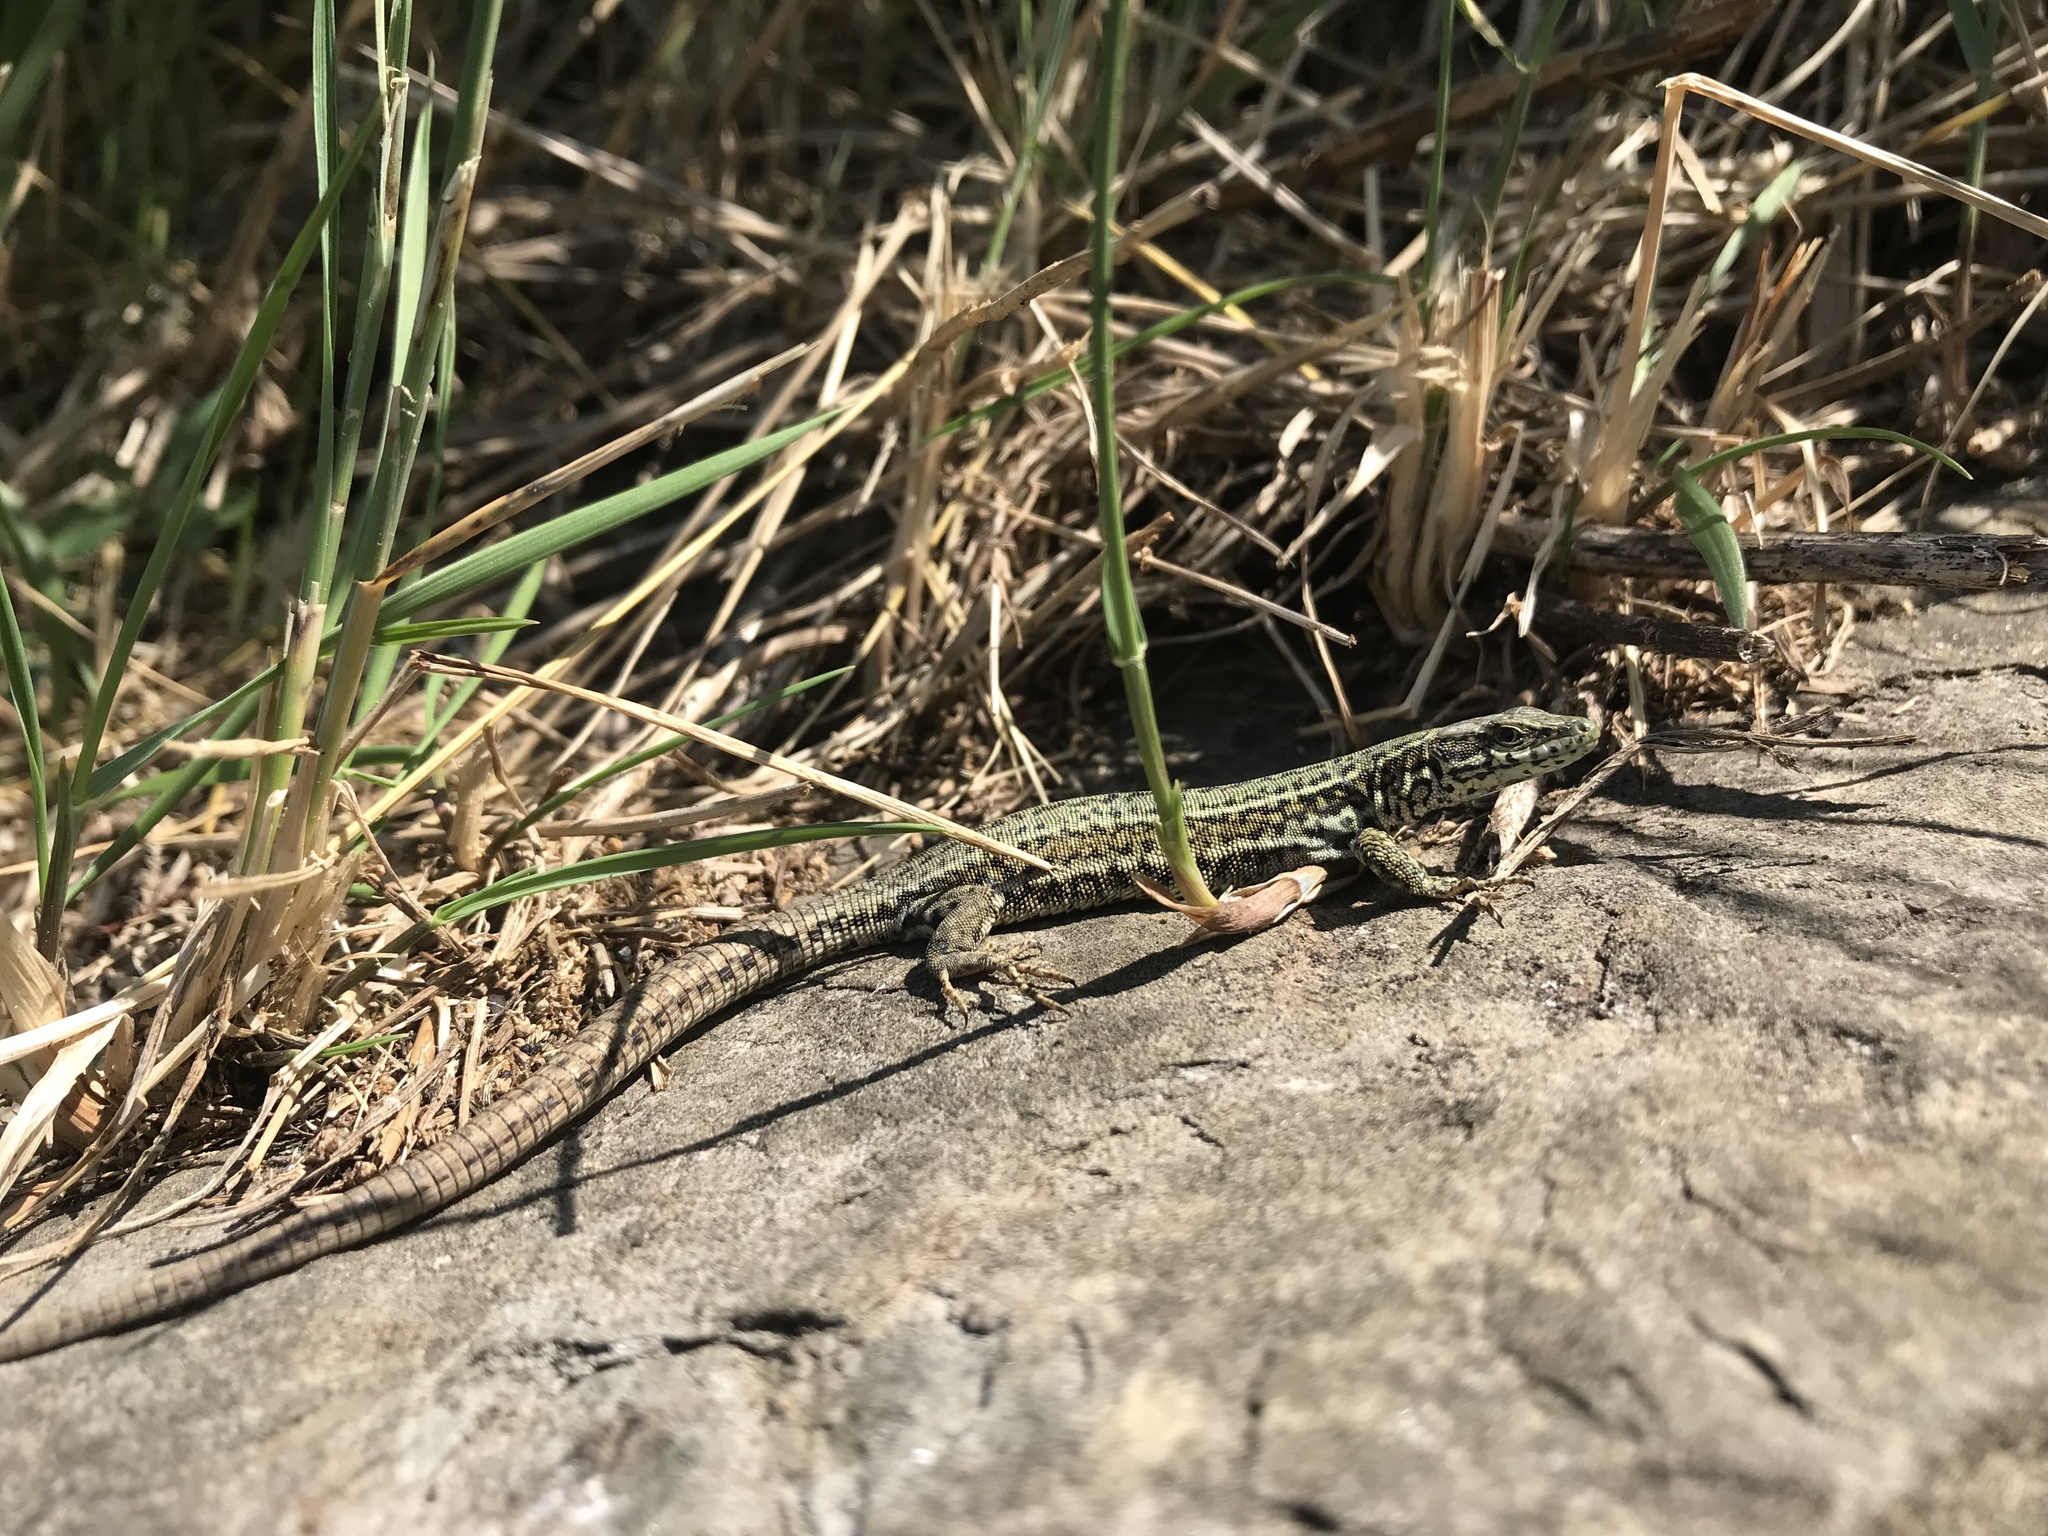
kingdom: Animalia
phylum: Chordata
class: Squamata
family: Lacertidae
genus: Podarcis
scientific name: Podarcis liolepis
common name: Catalonian wall lizard
